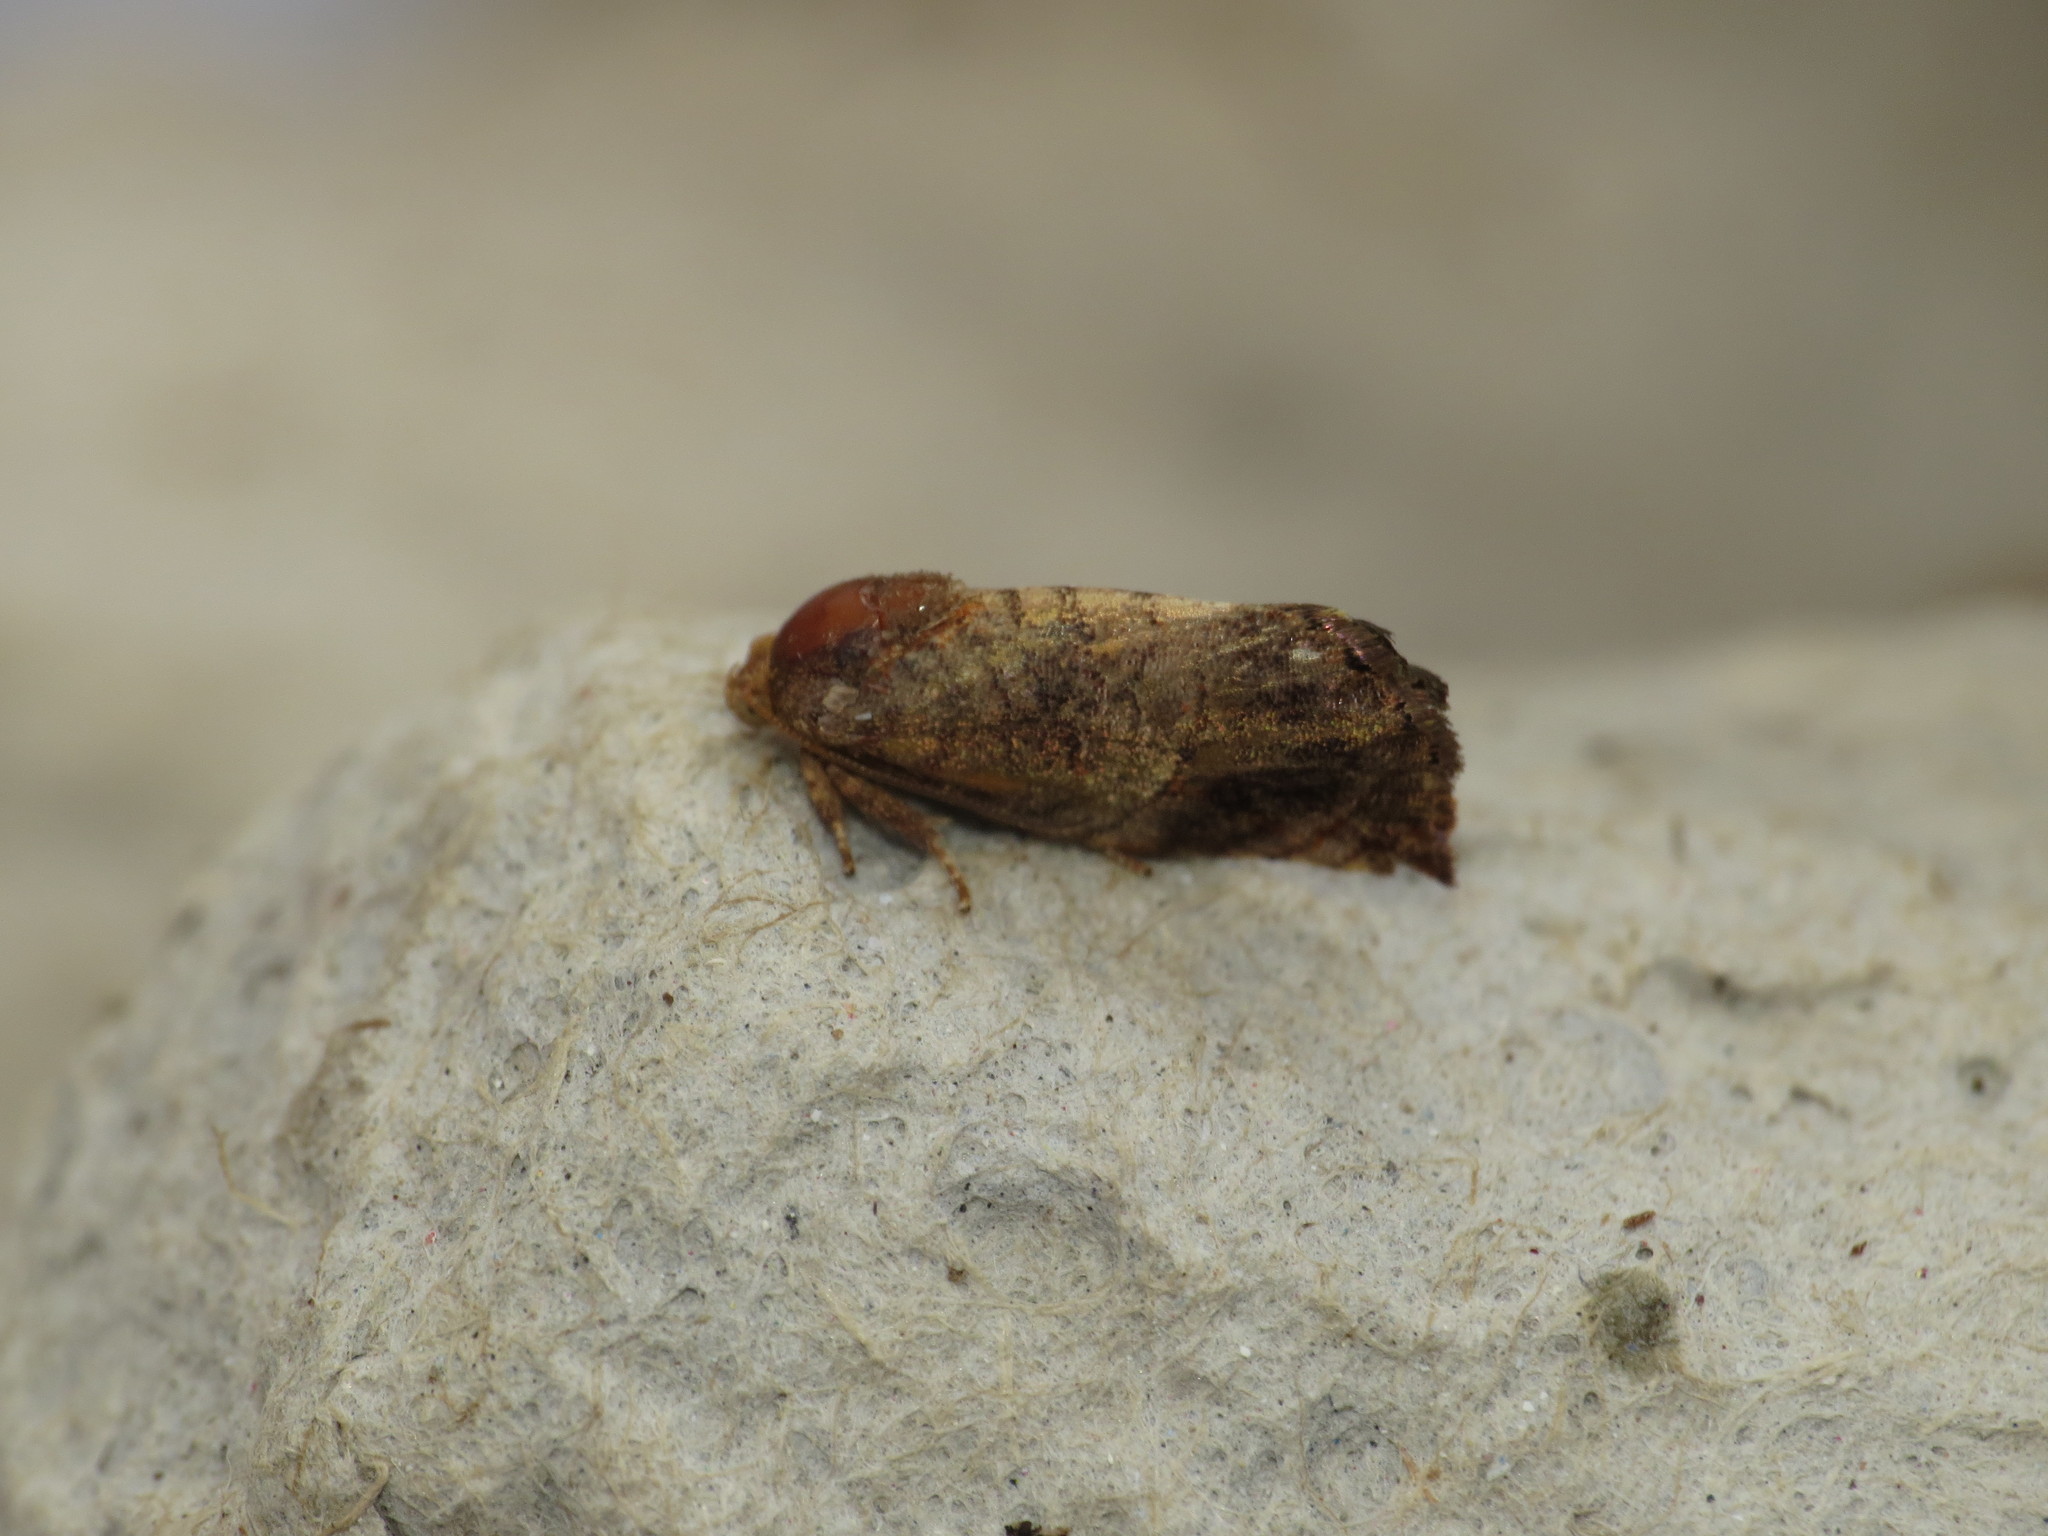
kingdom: Animalia
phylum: Arthropoda
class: Insecta
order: Lepidoptera
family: Depressariidae
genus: Peritropha
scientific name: Peritropha oligodrachma
